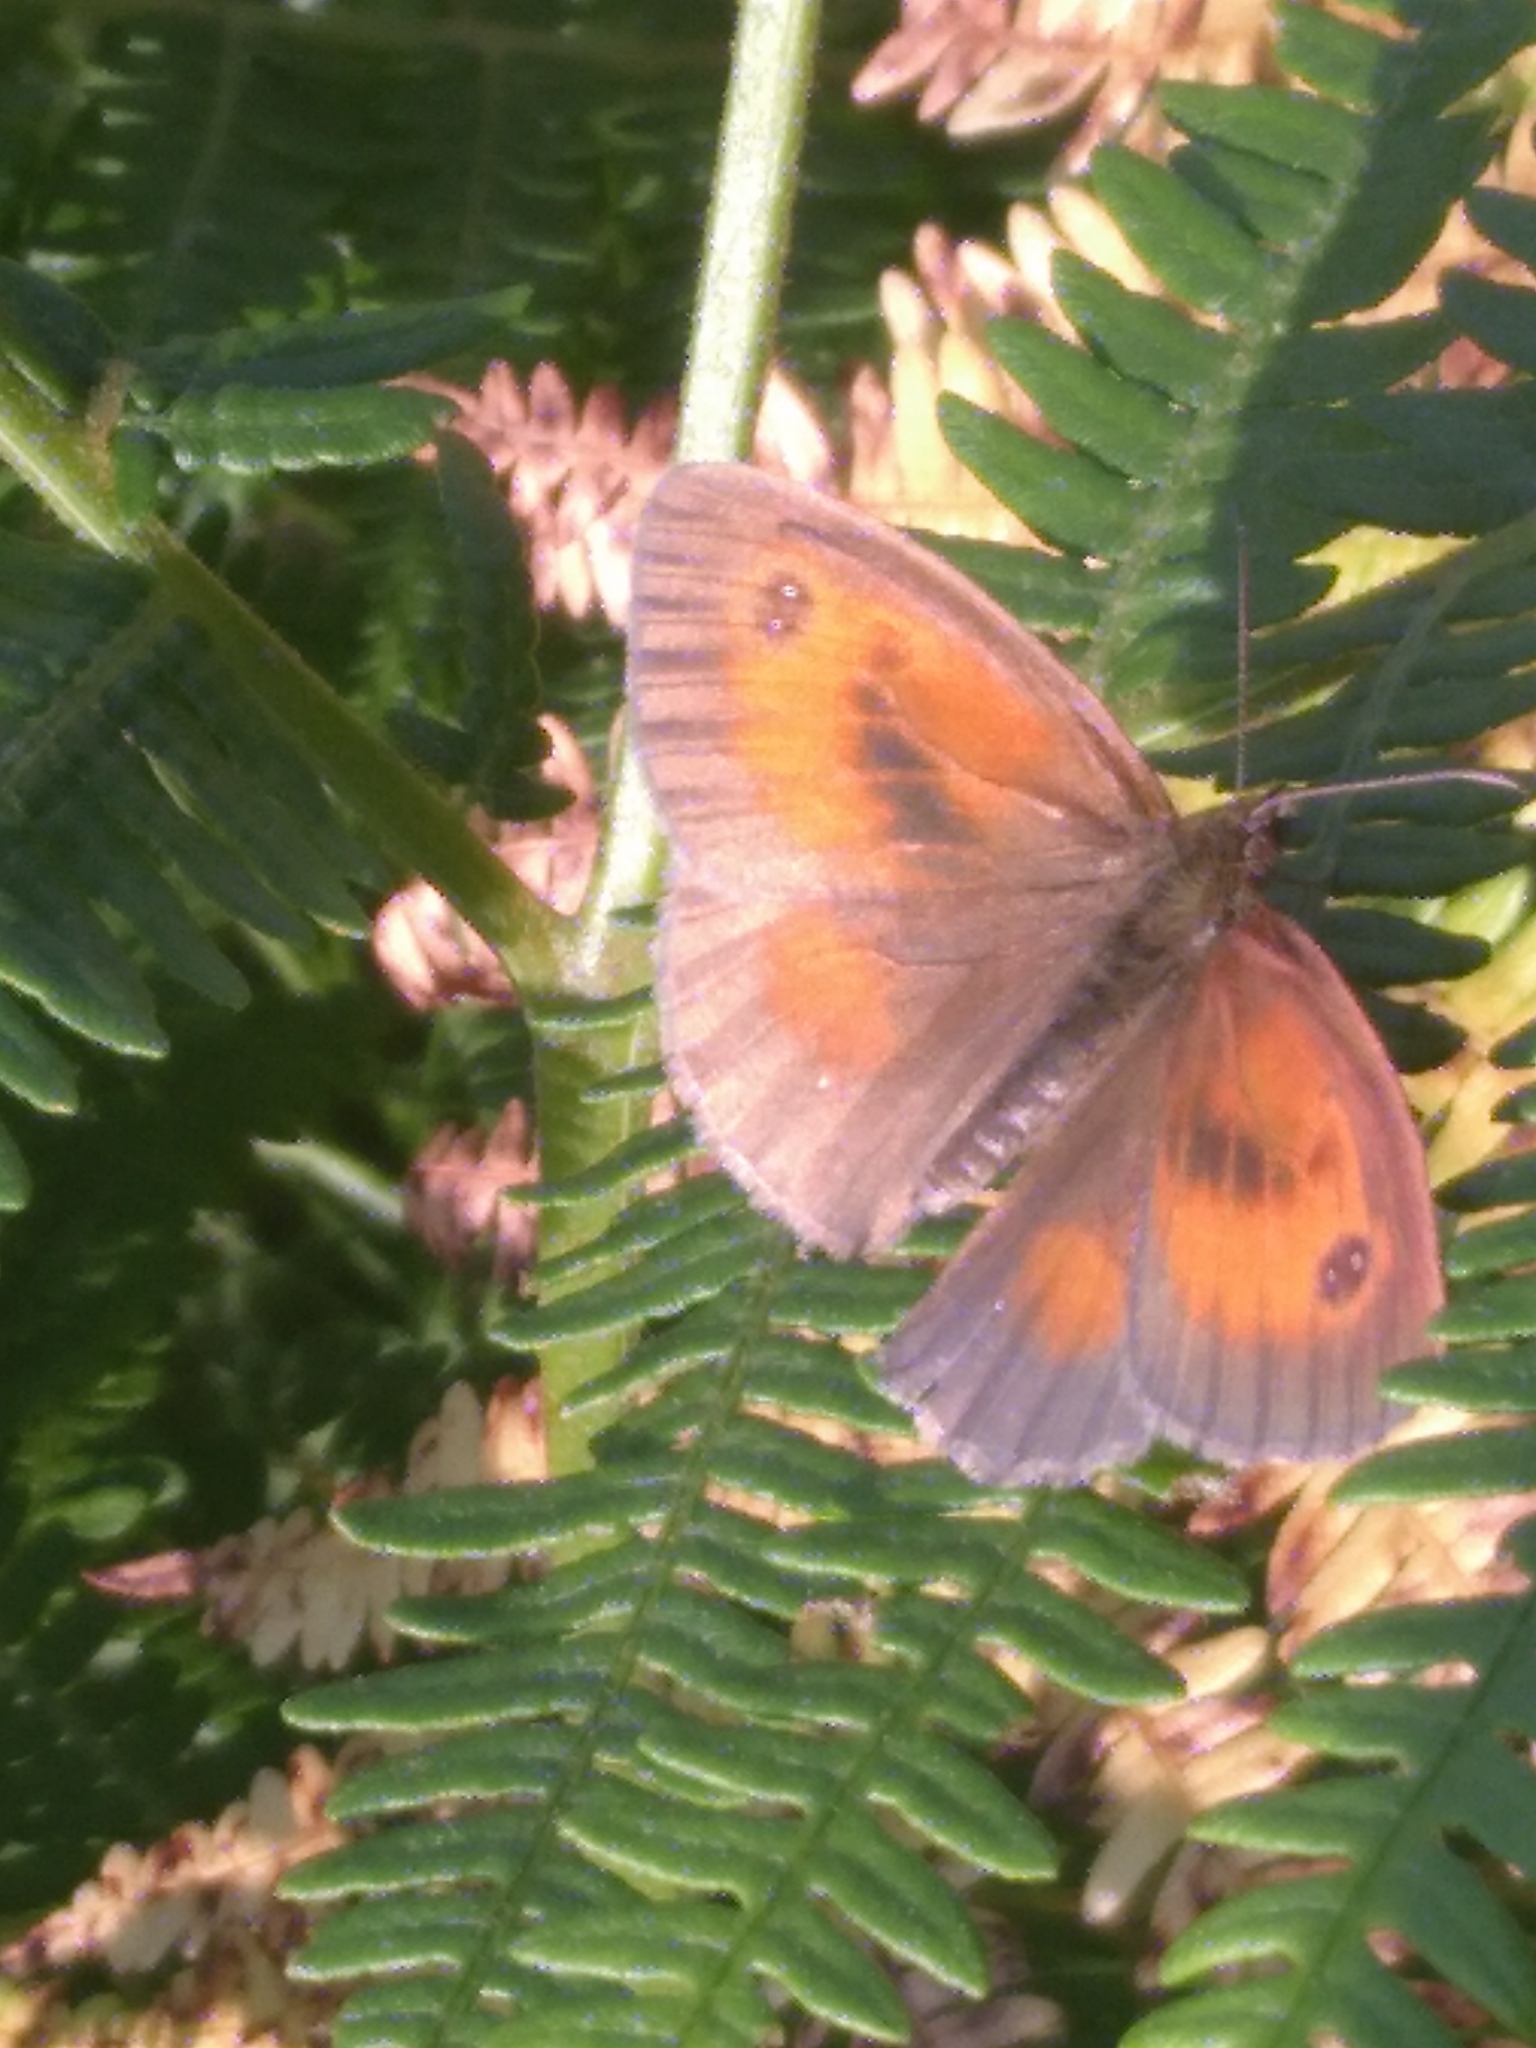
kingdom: Animalia
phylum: Arthropoda
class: Insecta
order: Lepidoptera
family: Nymphalidae
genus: Pyronia
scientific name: Pyronia tithonus
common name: Gatekeeper
